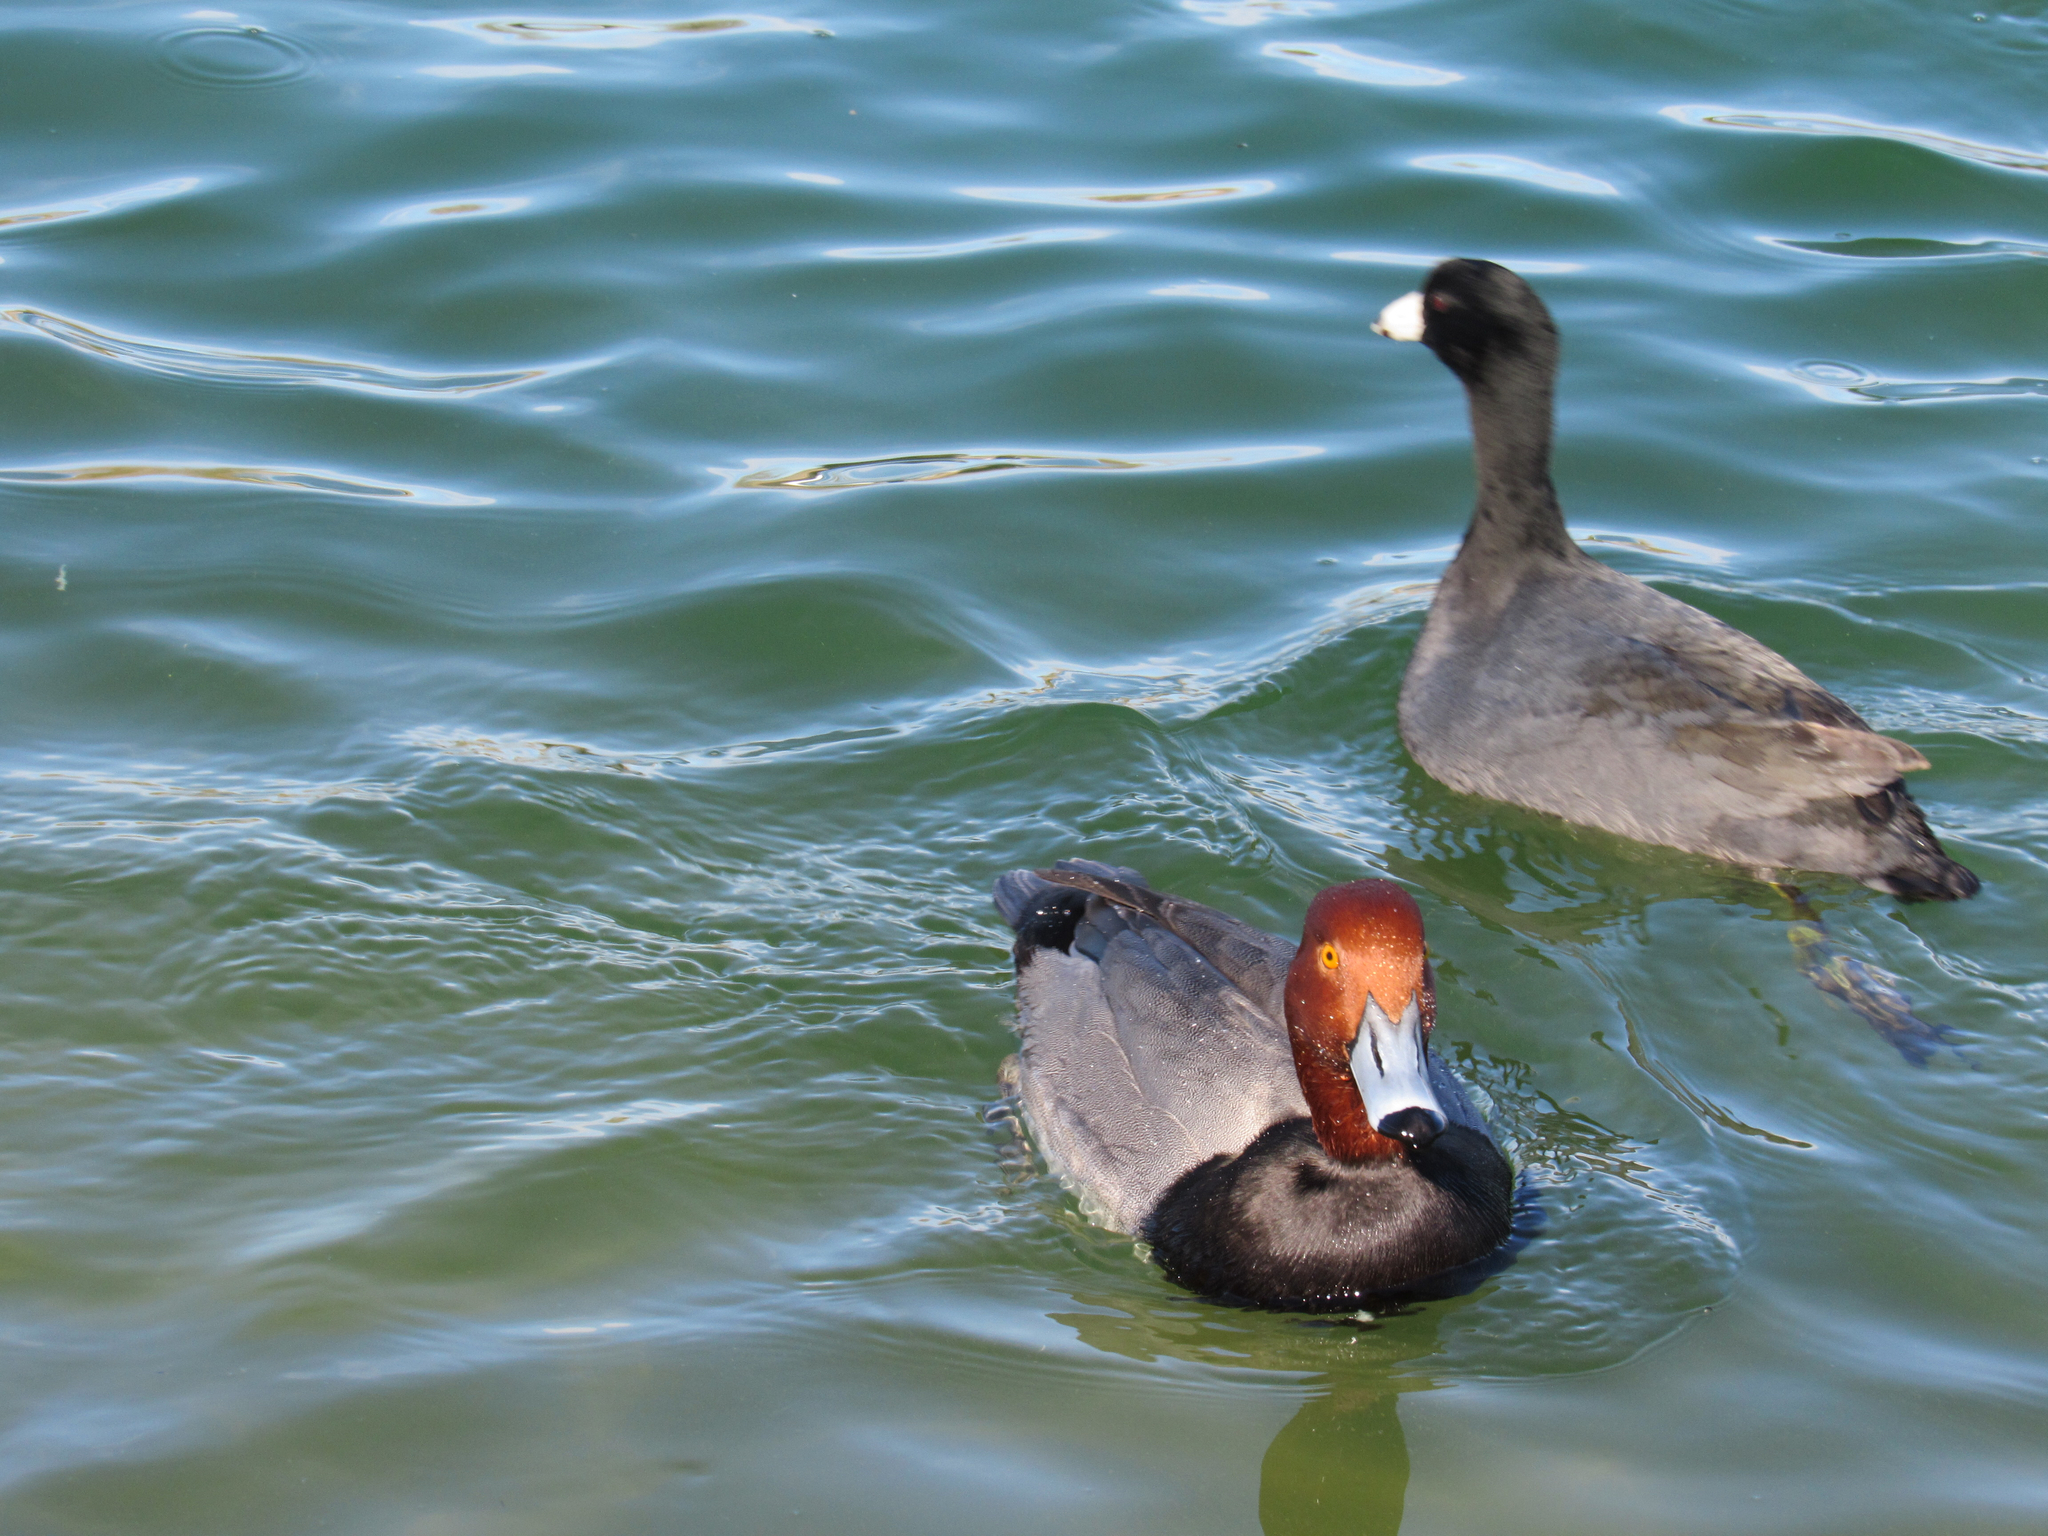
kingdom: Animalia
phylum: Chordata
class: Aves
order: Anseriformes
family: Anatidae
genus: Aythya
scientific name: Aythya americana
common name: Redhead
